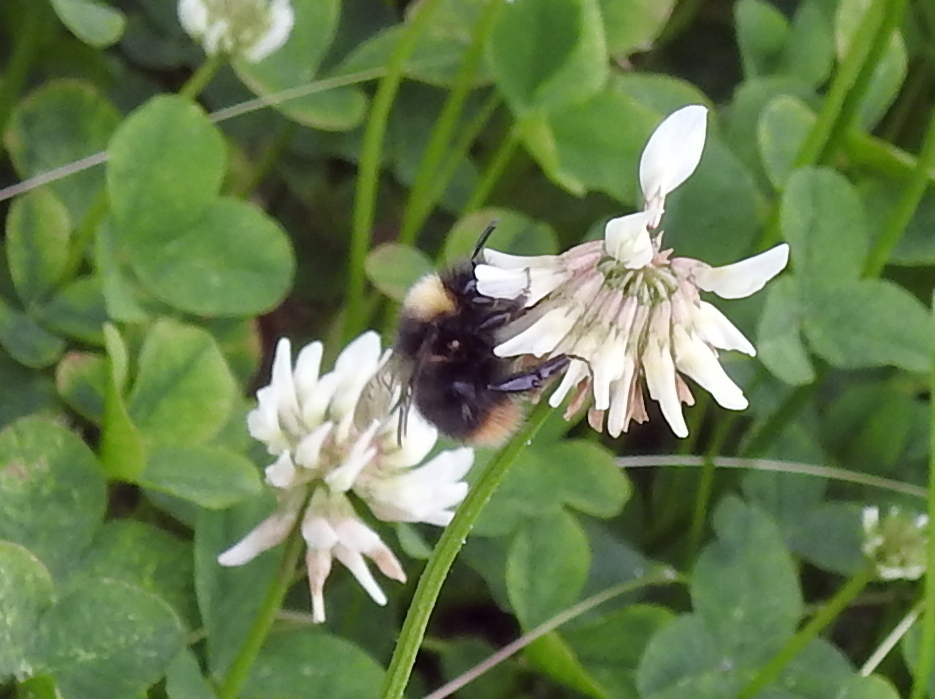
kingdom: Animalia
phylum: Arthropoda
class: Insecta
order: Hymenoptera
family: Apidae
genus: Bombus
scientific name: Bombus pratorum
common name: Early humble-bee
